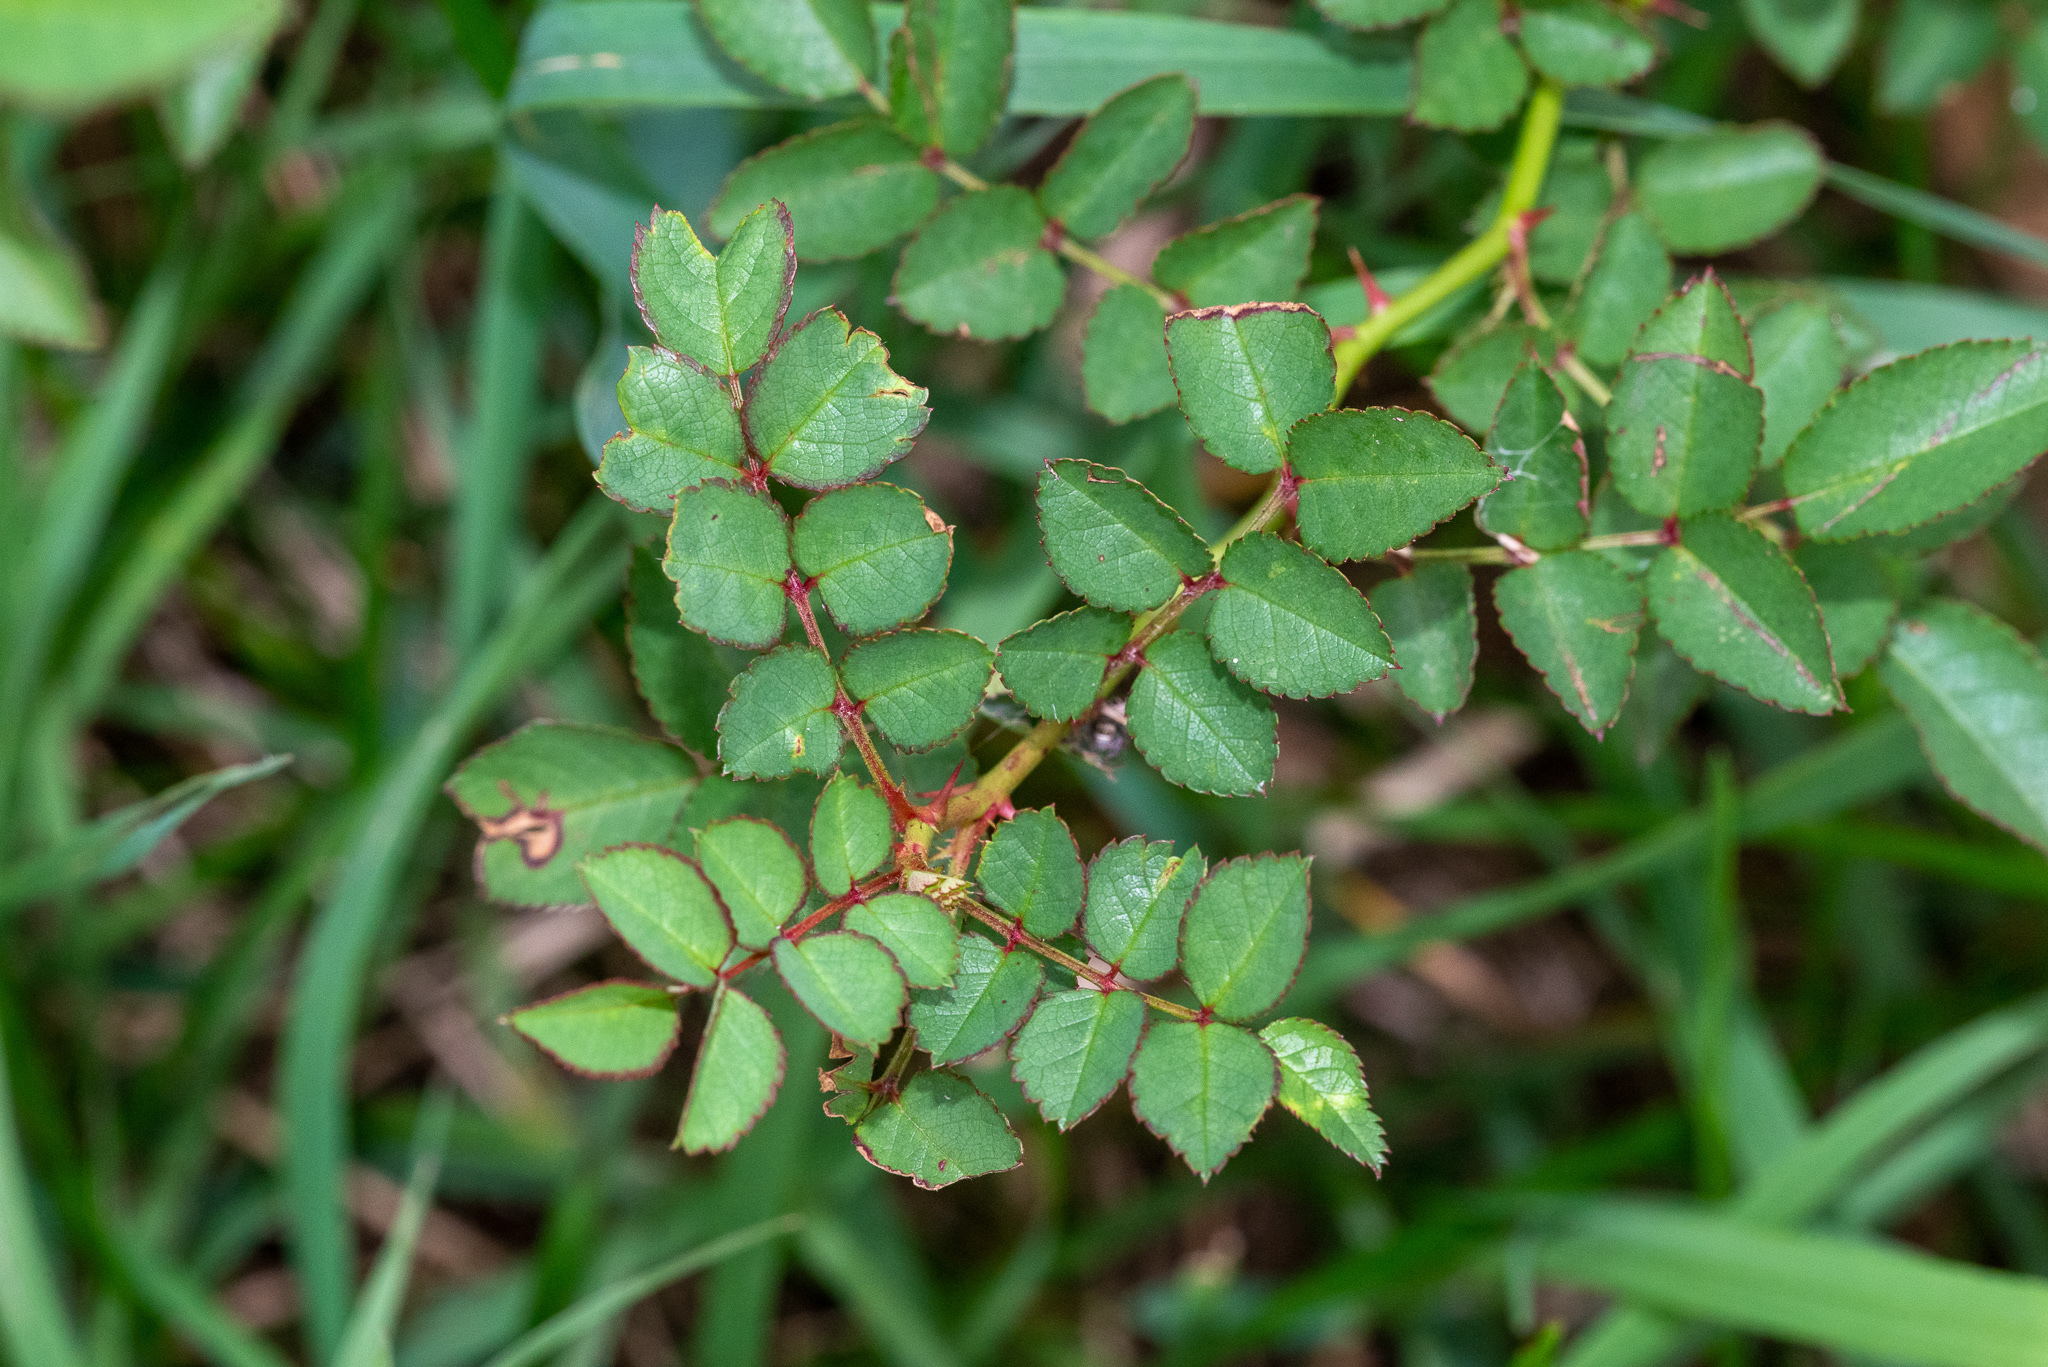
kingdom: Plantae
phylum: Tracheophyta
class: Magnoliopsida
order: Rosales
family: Rosaceae
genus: Rosa
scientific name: Rosa multiflora
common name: Multiflora rose
